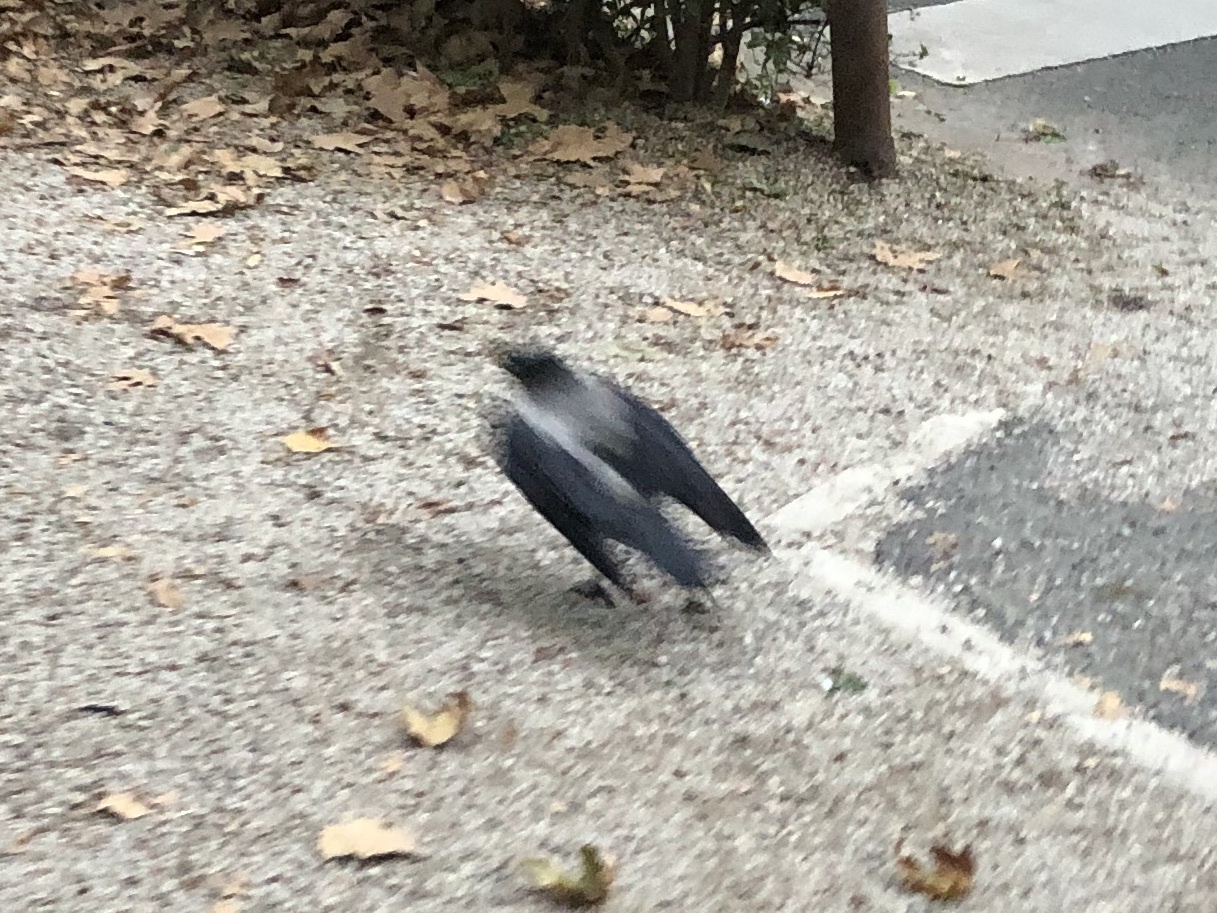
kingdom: Animalia
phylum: Chordata
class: Aves
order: Passeriformes
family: Corvidae
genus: Corvus
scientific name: Corvus cornix
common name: Hooded crow
